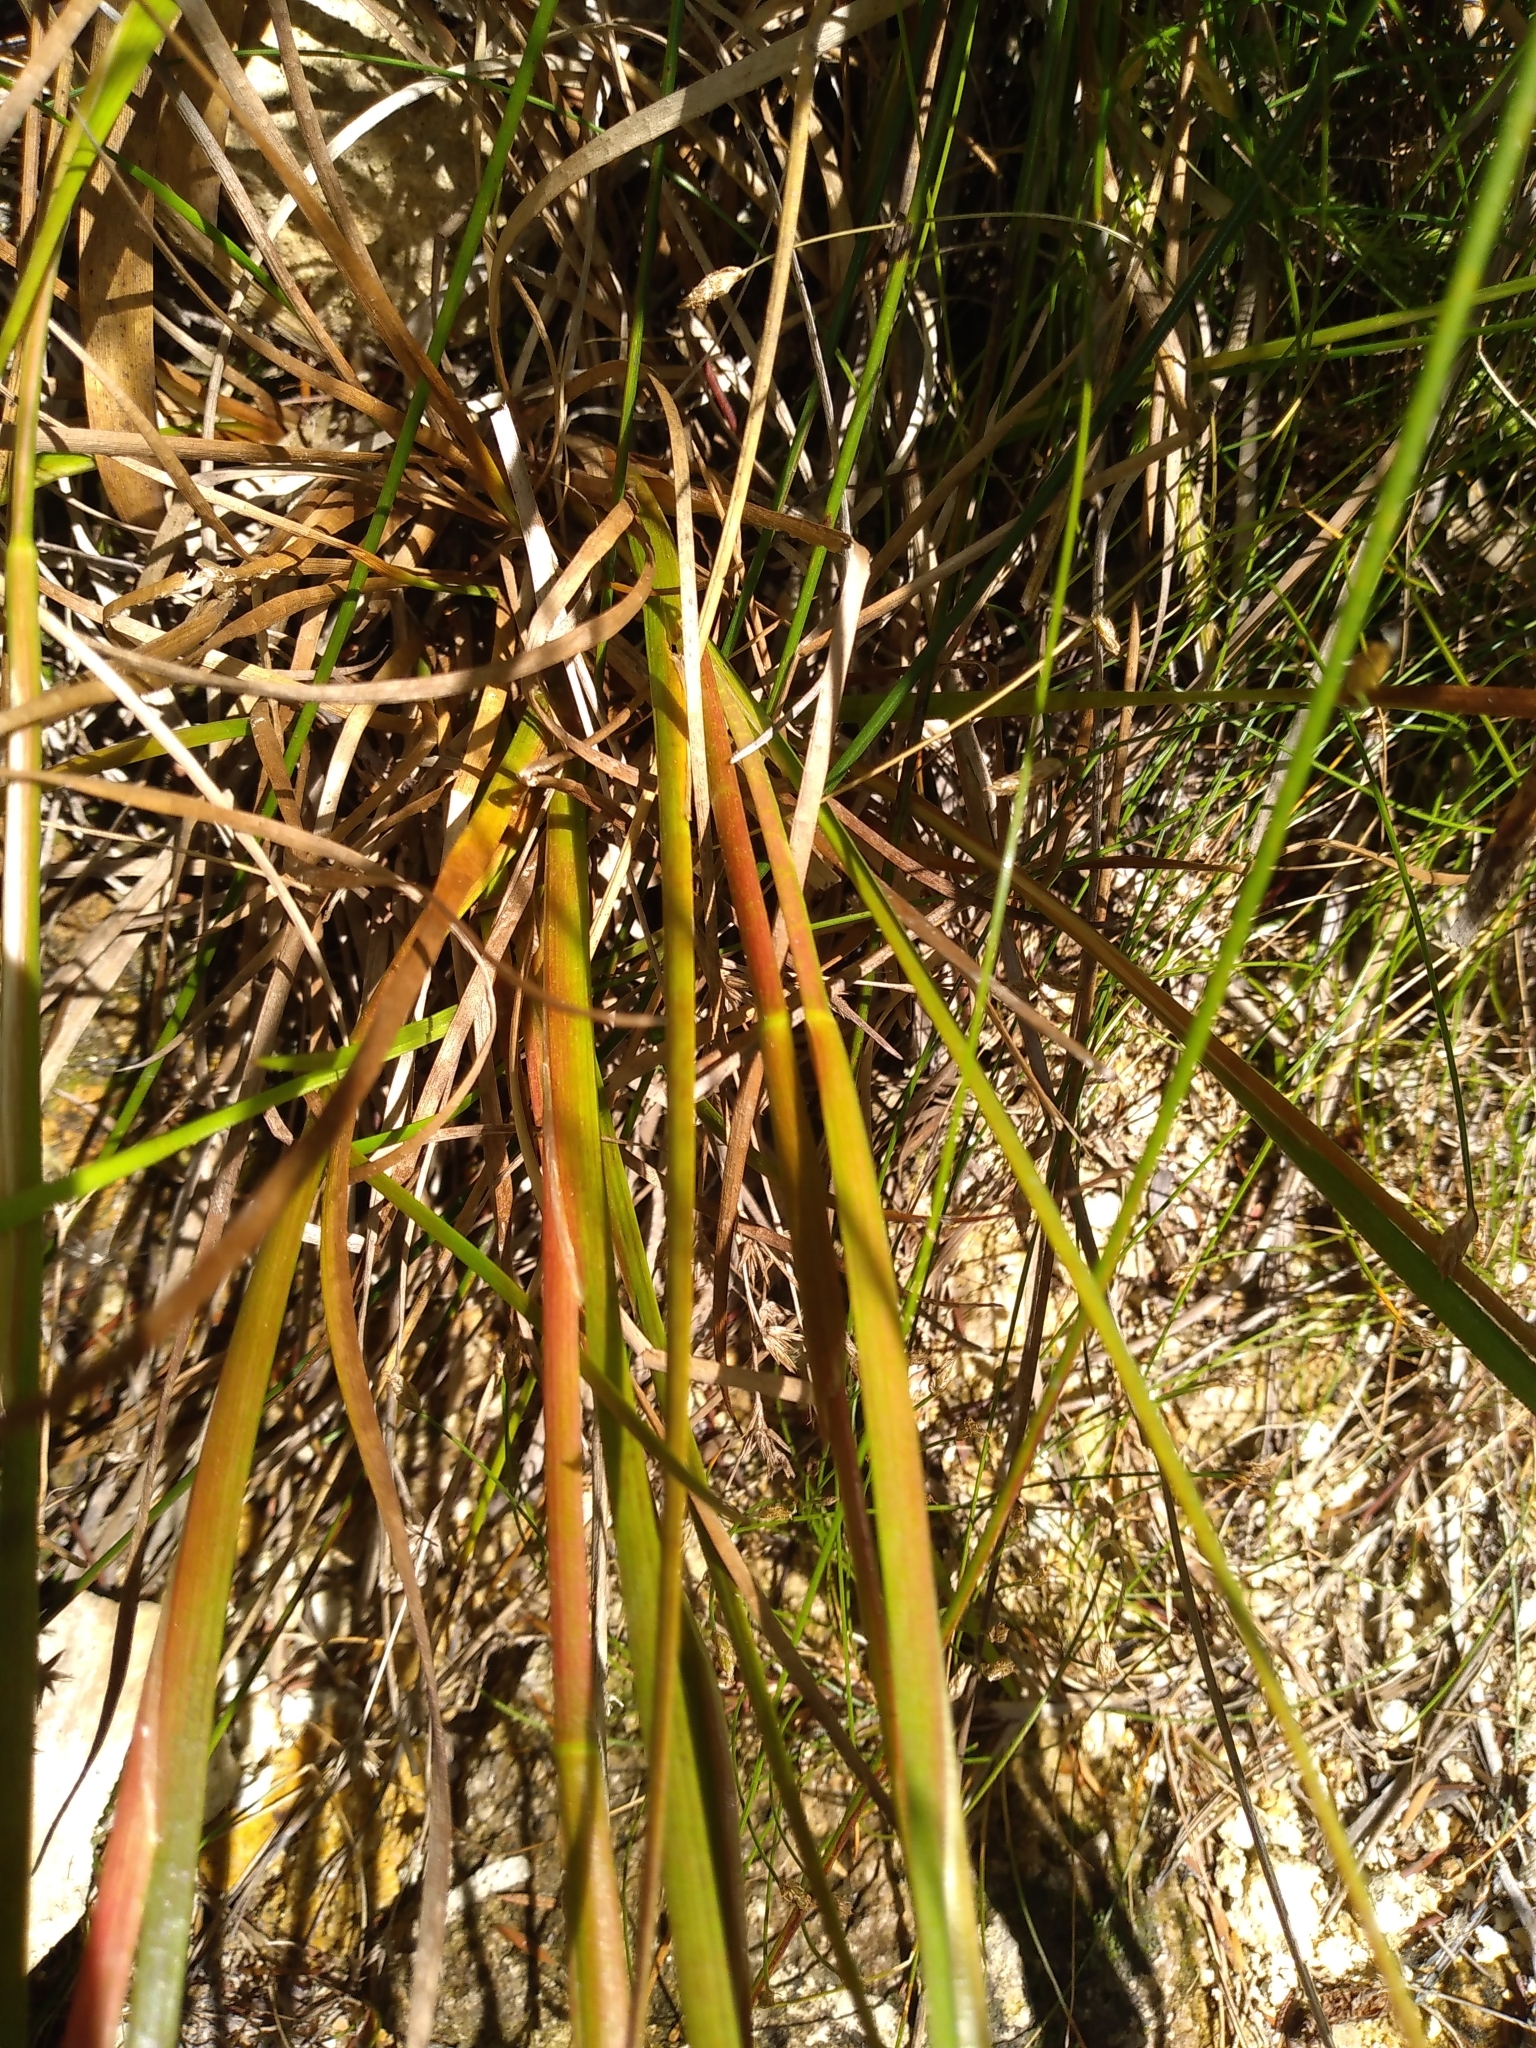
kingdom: Plantae
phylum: Tracheophyta
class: Liliopsida
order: Poales
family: Juncaceae
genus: Juncus
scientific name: Juncus prismatocarpus
